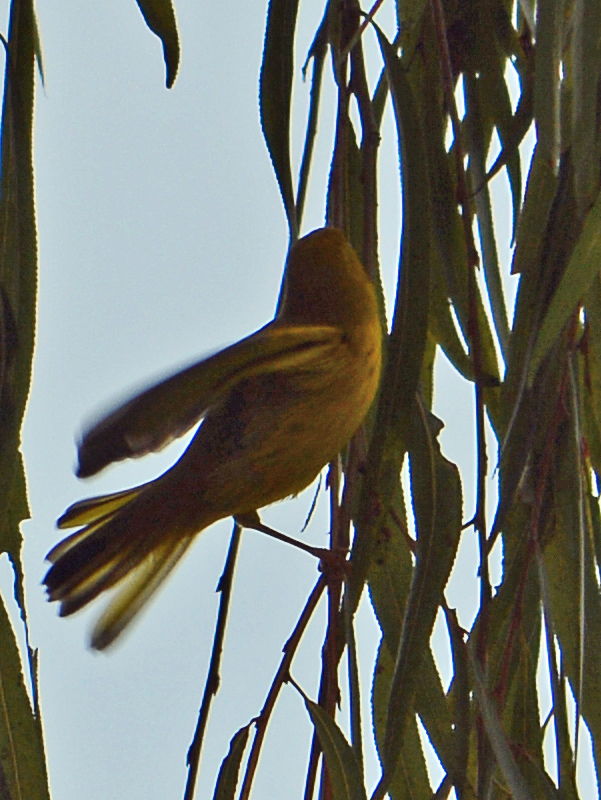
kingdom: Animalia
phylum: Chordata
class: Aves
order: Passeriformes
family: Parulidae
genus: Setophaga
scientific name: Setophaga petechia
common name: Yellow warbler
